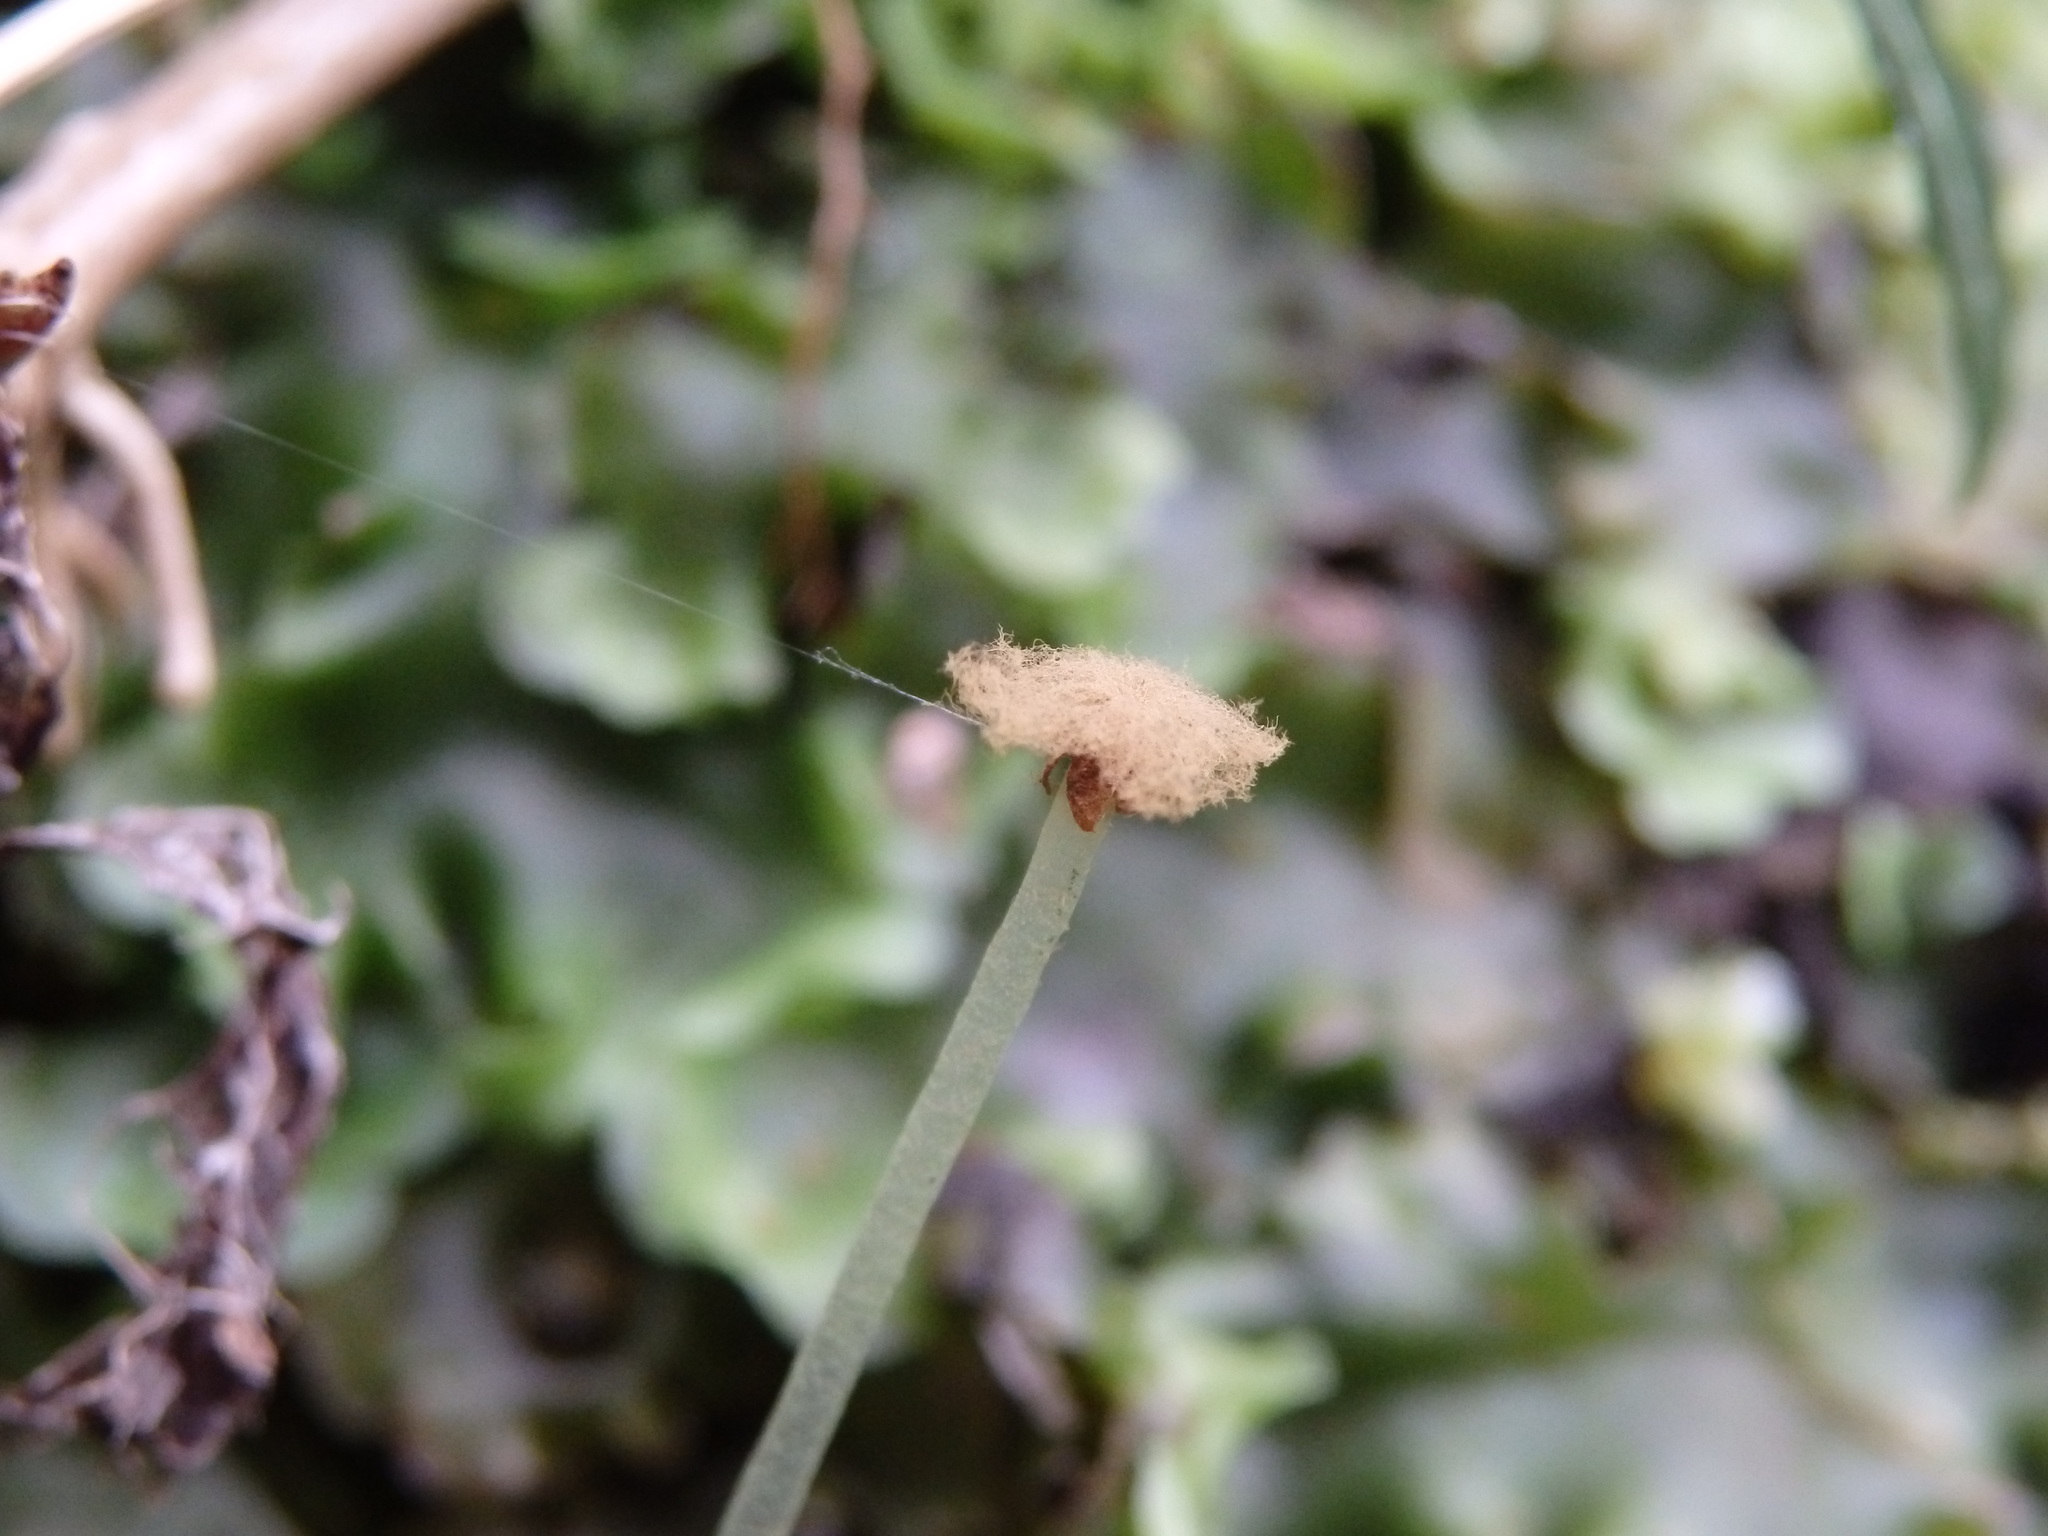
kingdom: Plantae
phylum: Marchantiophyta
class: Jungermanniopsida
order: Pelliales
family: Pelliaceae
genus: Pellia
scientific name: Pellia epiphylla
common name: Common pellia
